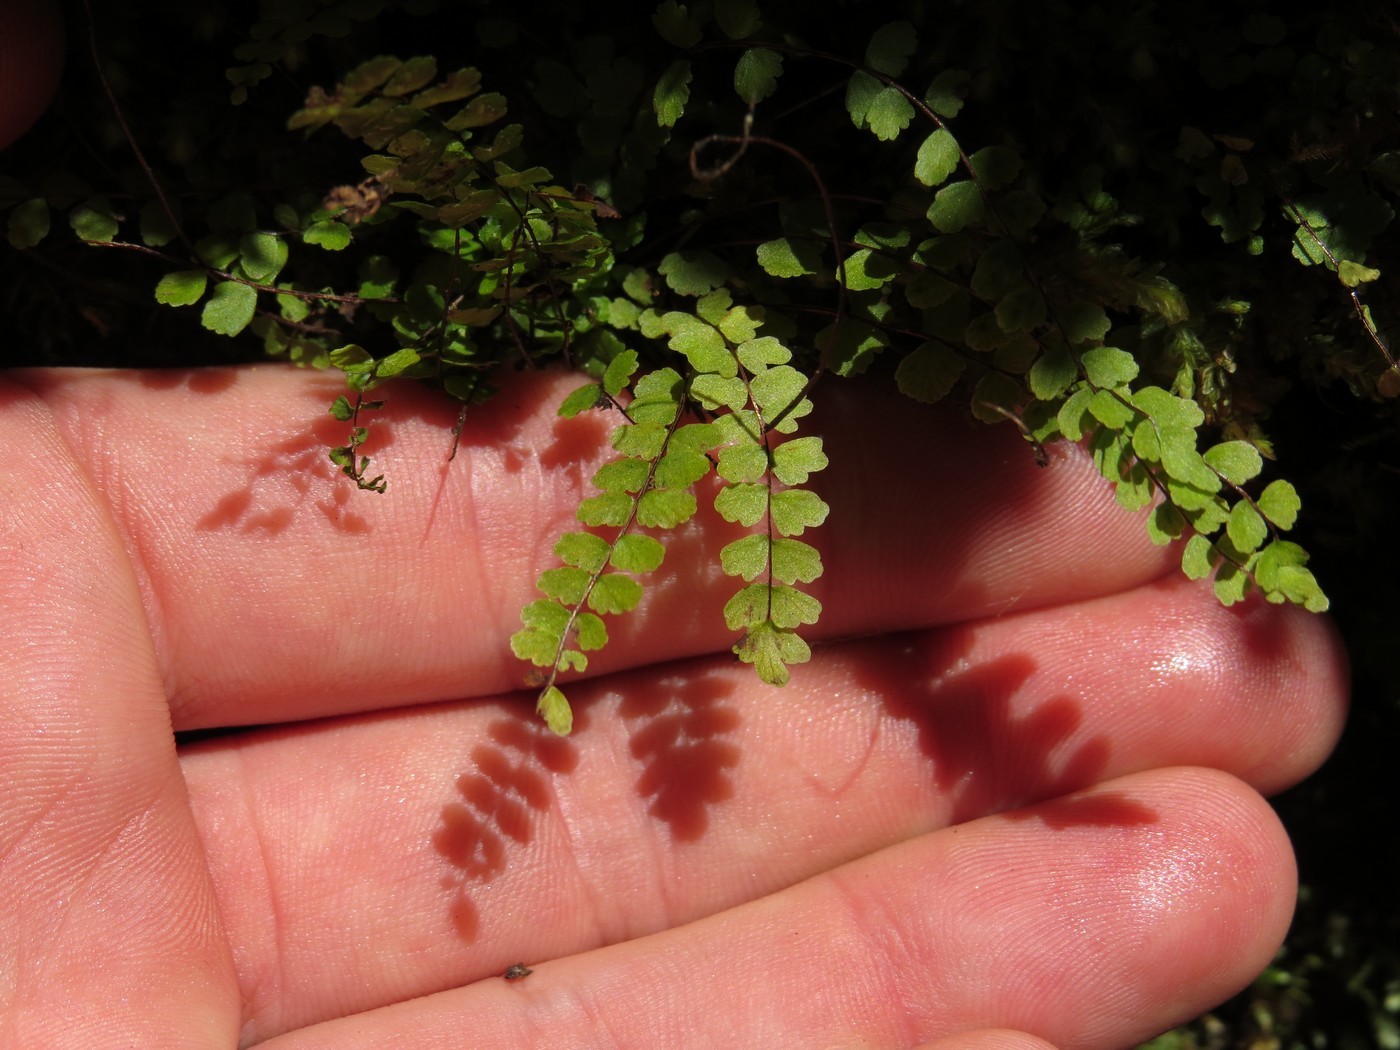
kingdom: Plantae
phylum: Tracheophyta
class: Polypodiopsida
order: Polypodiales
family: Aspleniaceae
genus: Asplenium
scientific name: Asplenium trichomanes
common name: Maidenhair spleenwort
